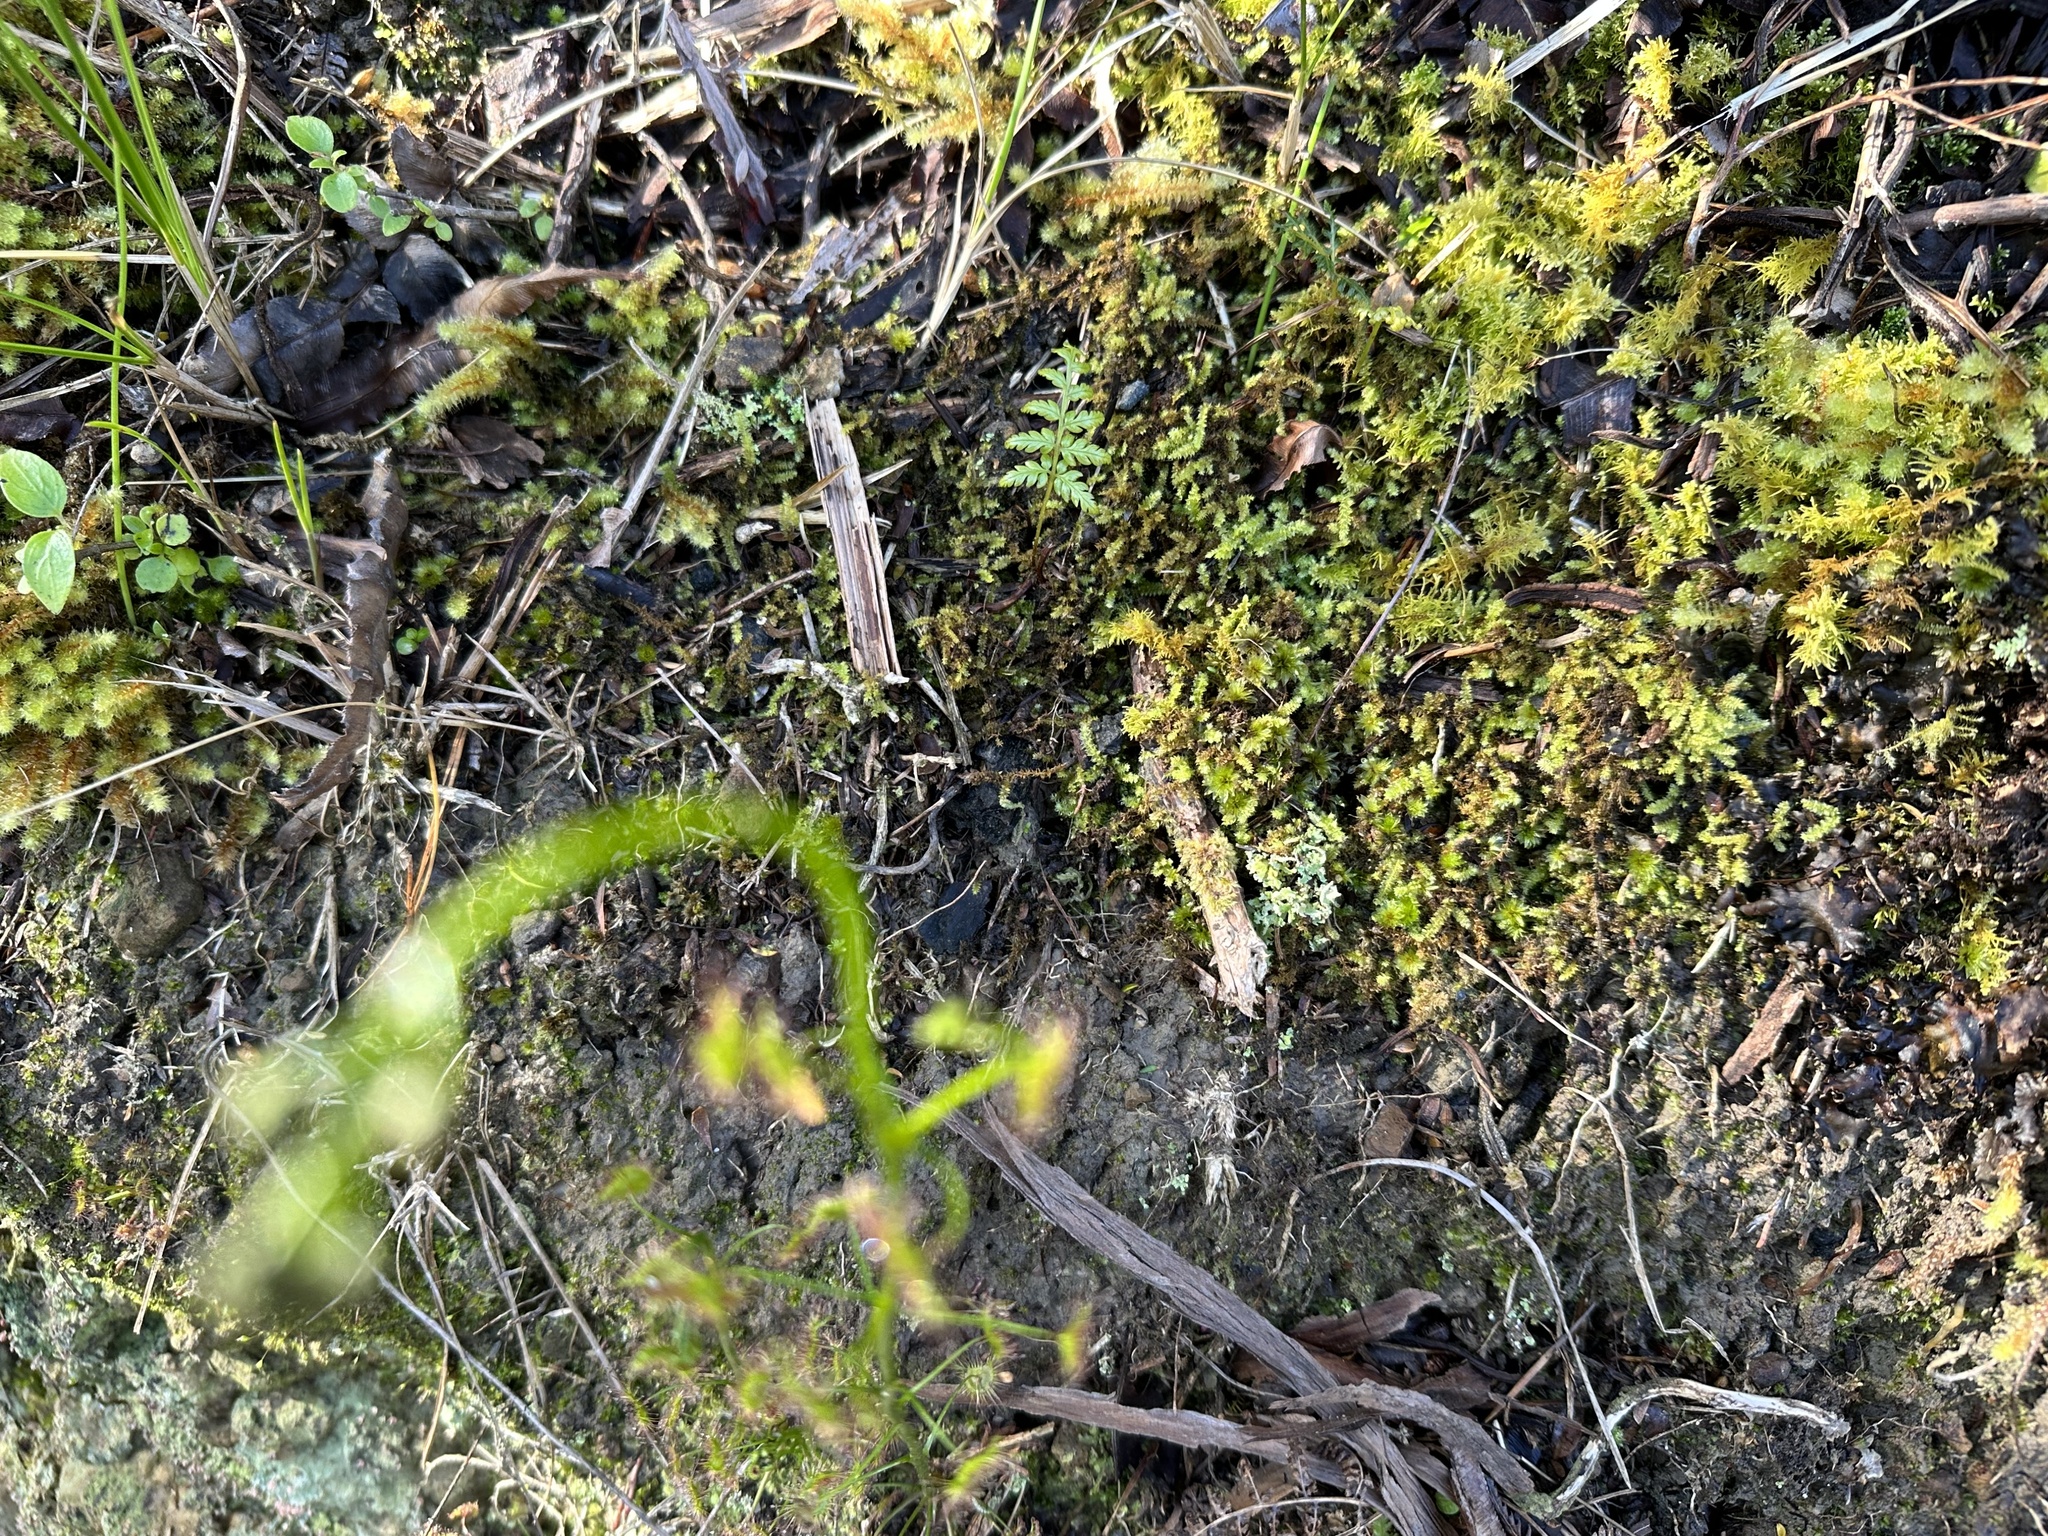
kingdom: Plantae
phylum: Tracheophyta
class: Magnoliopsida
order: Caryophyllales
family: Droseraceae
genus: Drosera
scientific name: Drosera peltata
